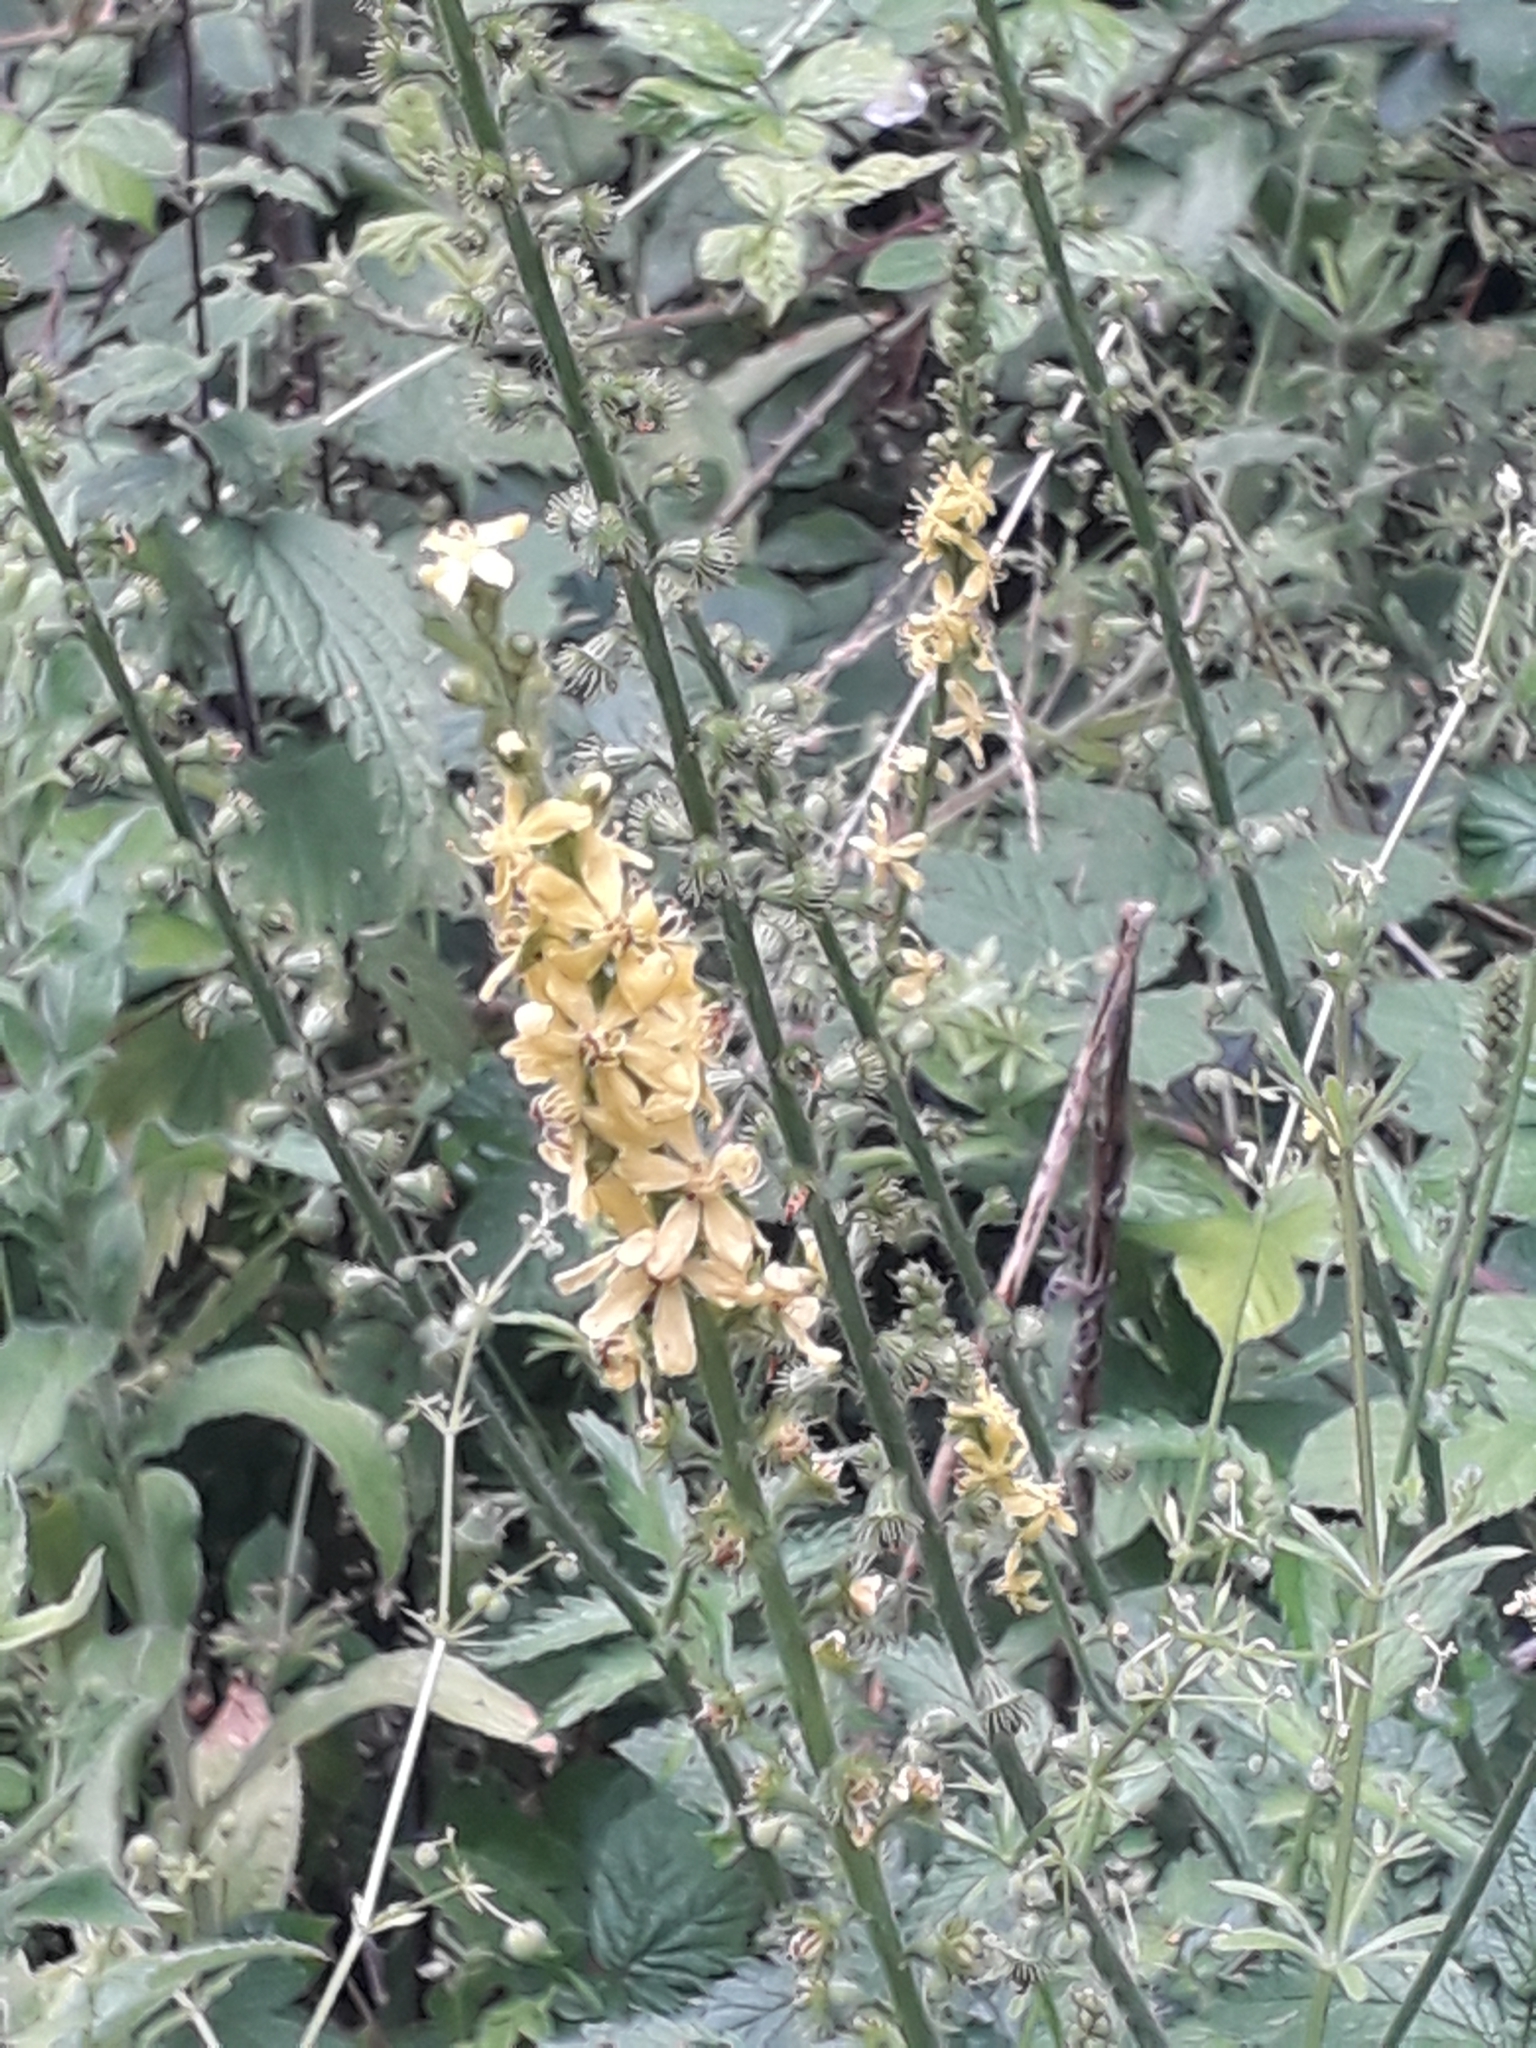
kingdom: Plantae
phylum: Tracheophyta
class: Magnoliopsida
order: Rosales
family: Rosaceae
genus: Agrimonia
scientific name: Agrimonia eupatoria
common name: Agrimony
